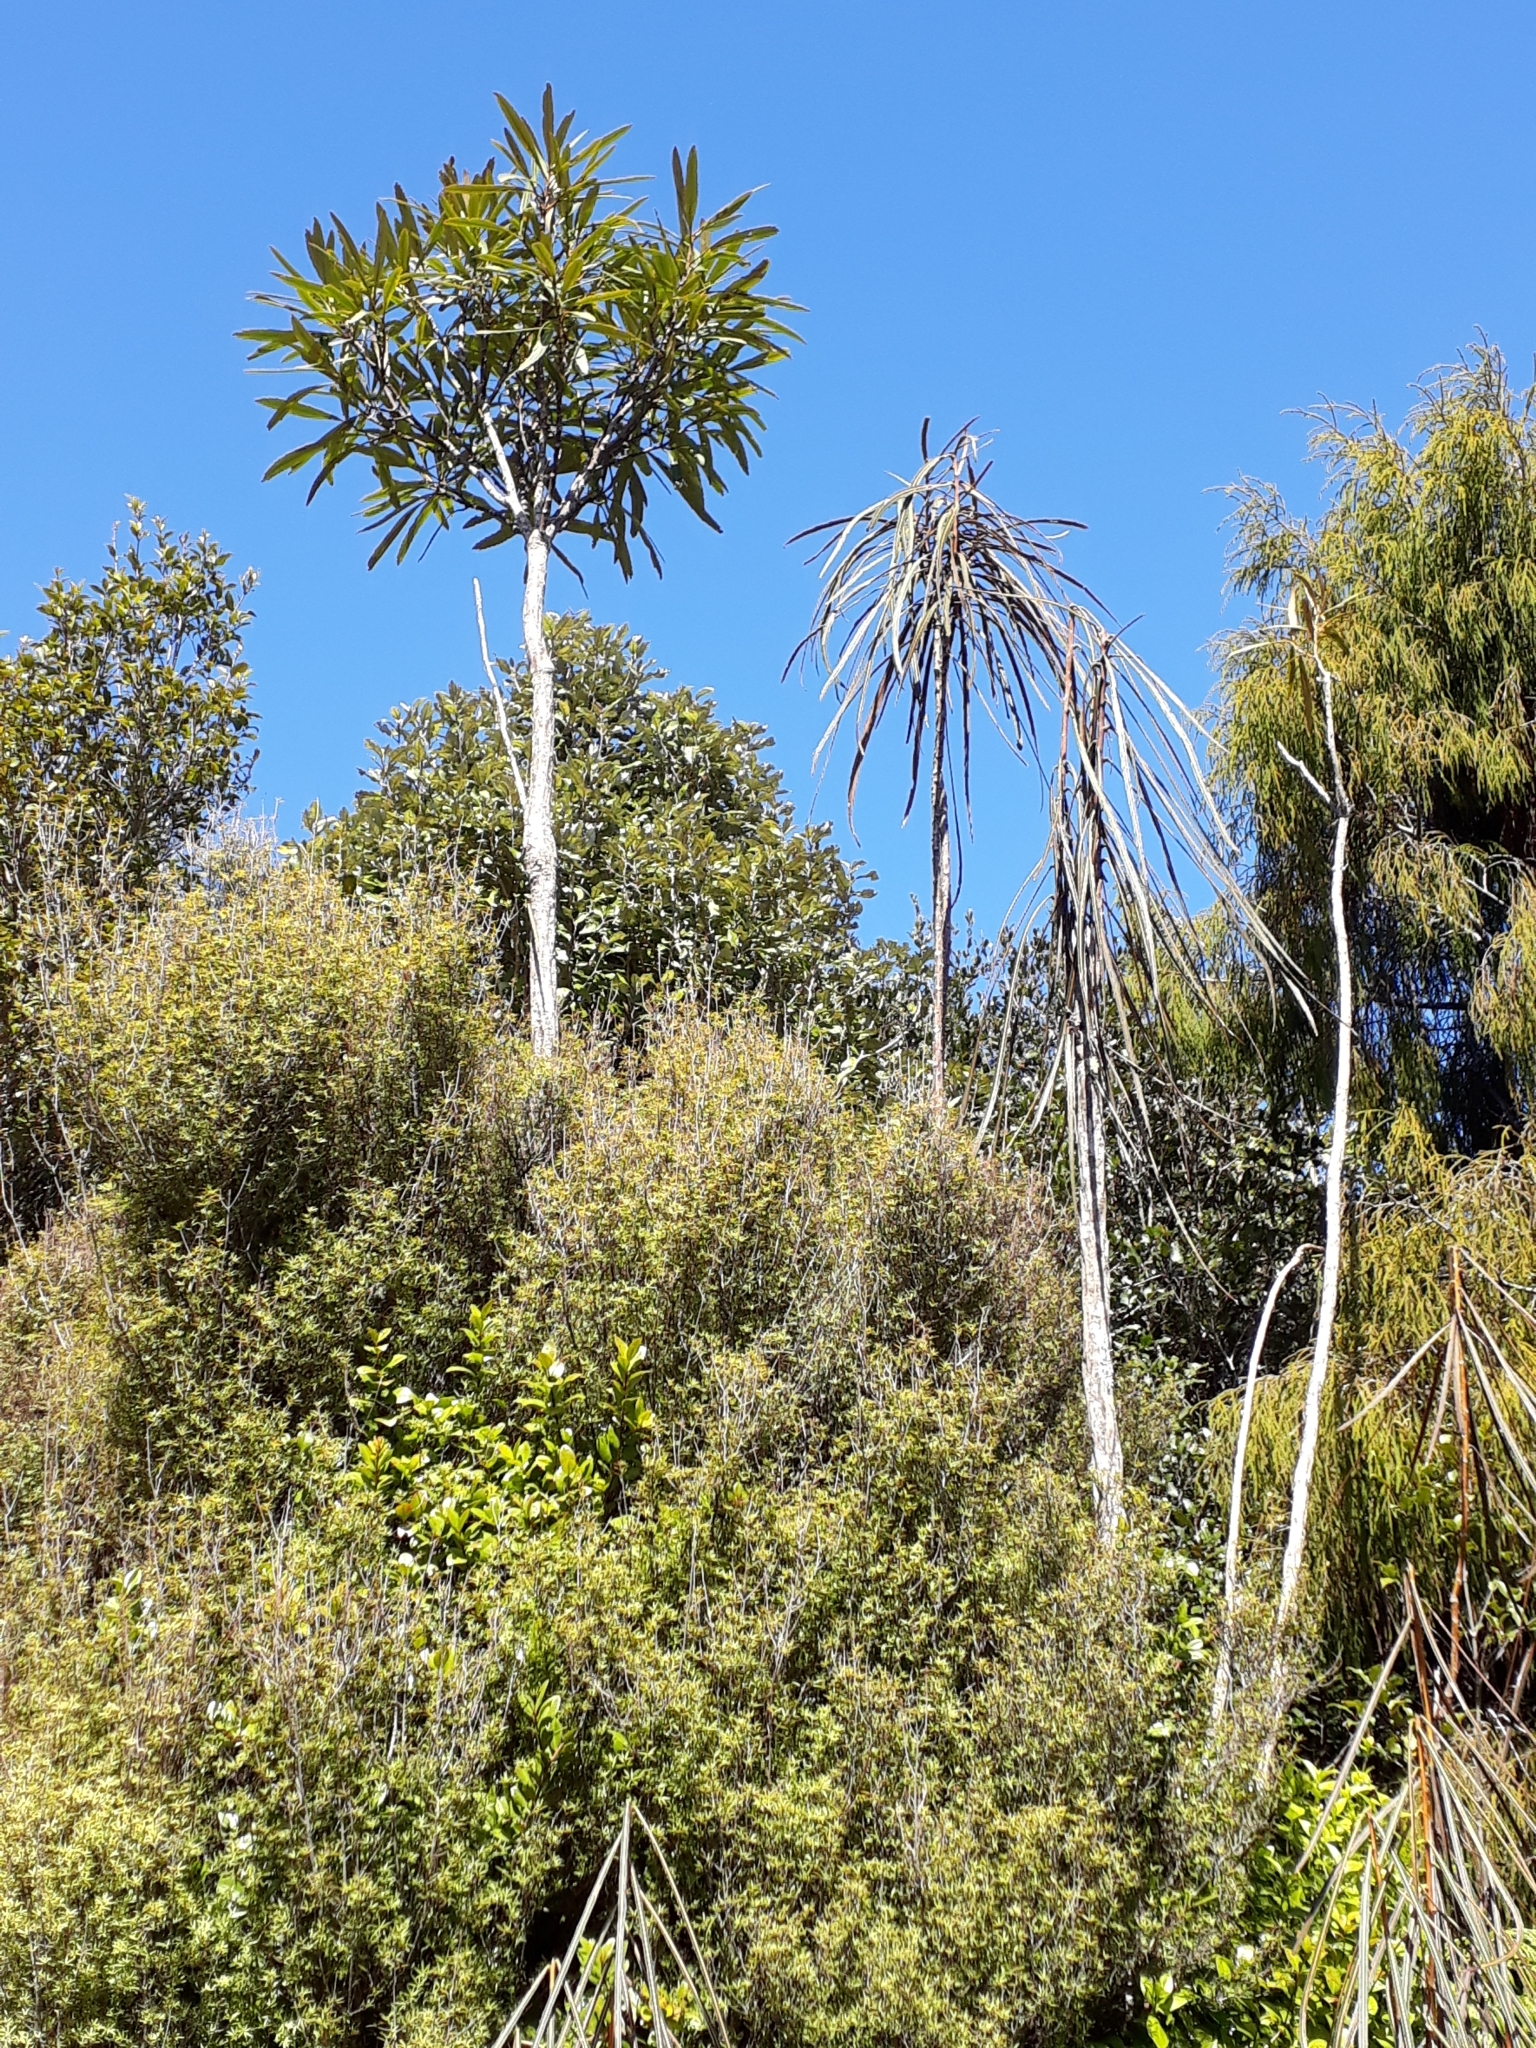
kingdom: Plantae
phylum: Tracheophyta
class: Magnoliopsida
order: Apiales
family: Araliaceae
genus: Pseudopanax
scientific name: Pseudopanax crassifolius
